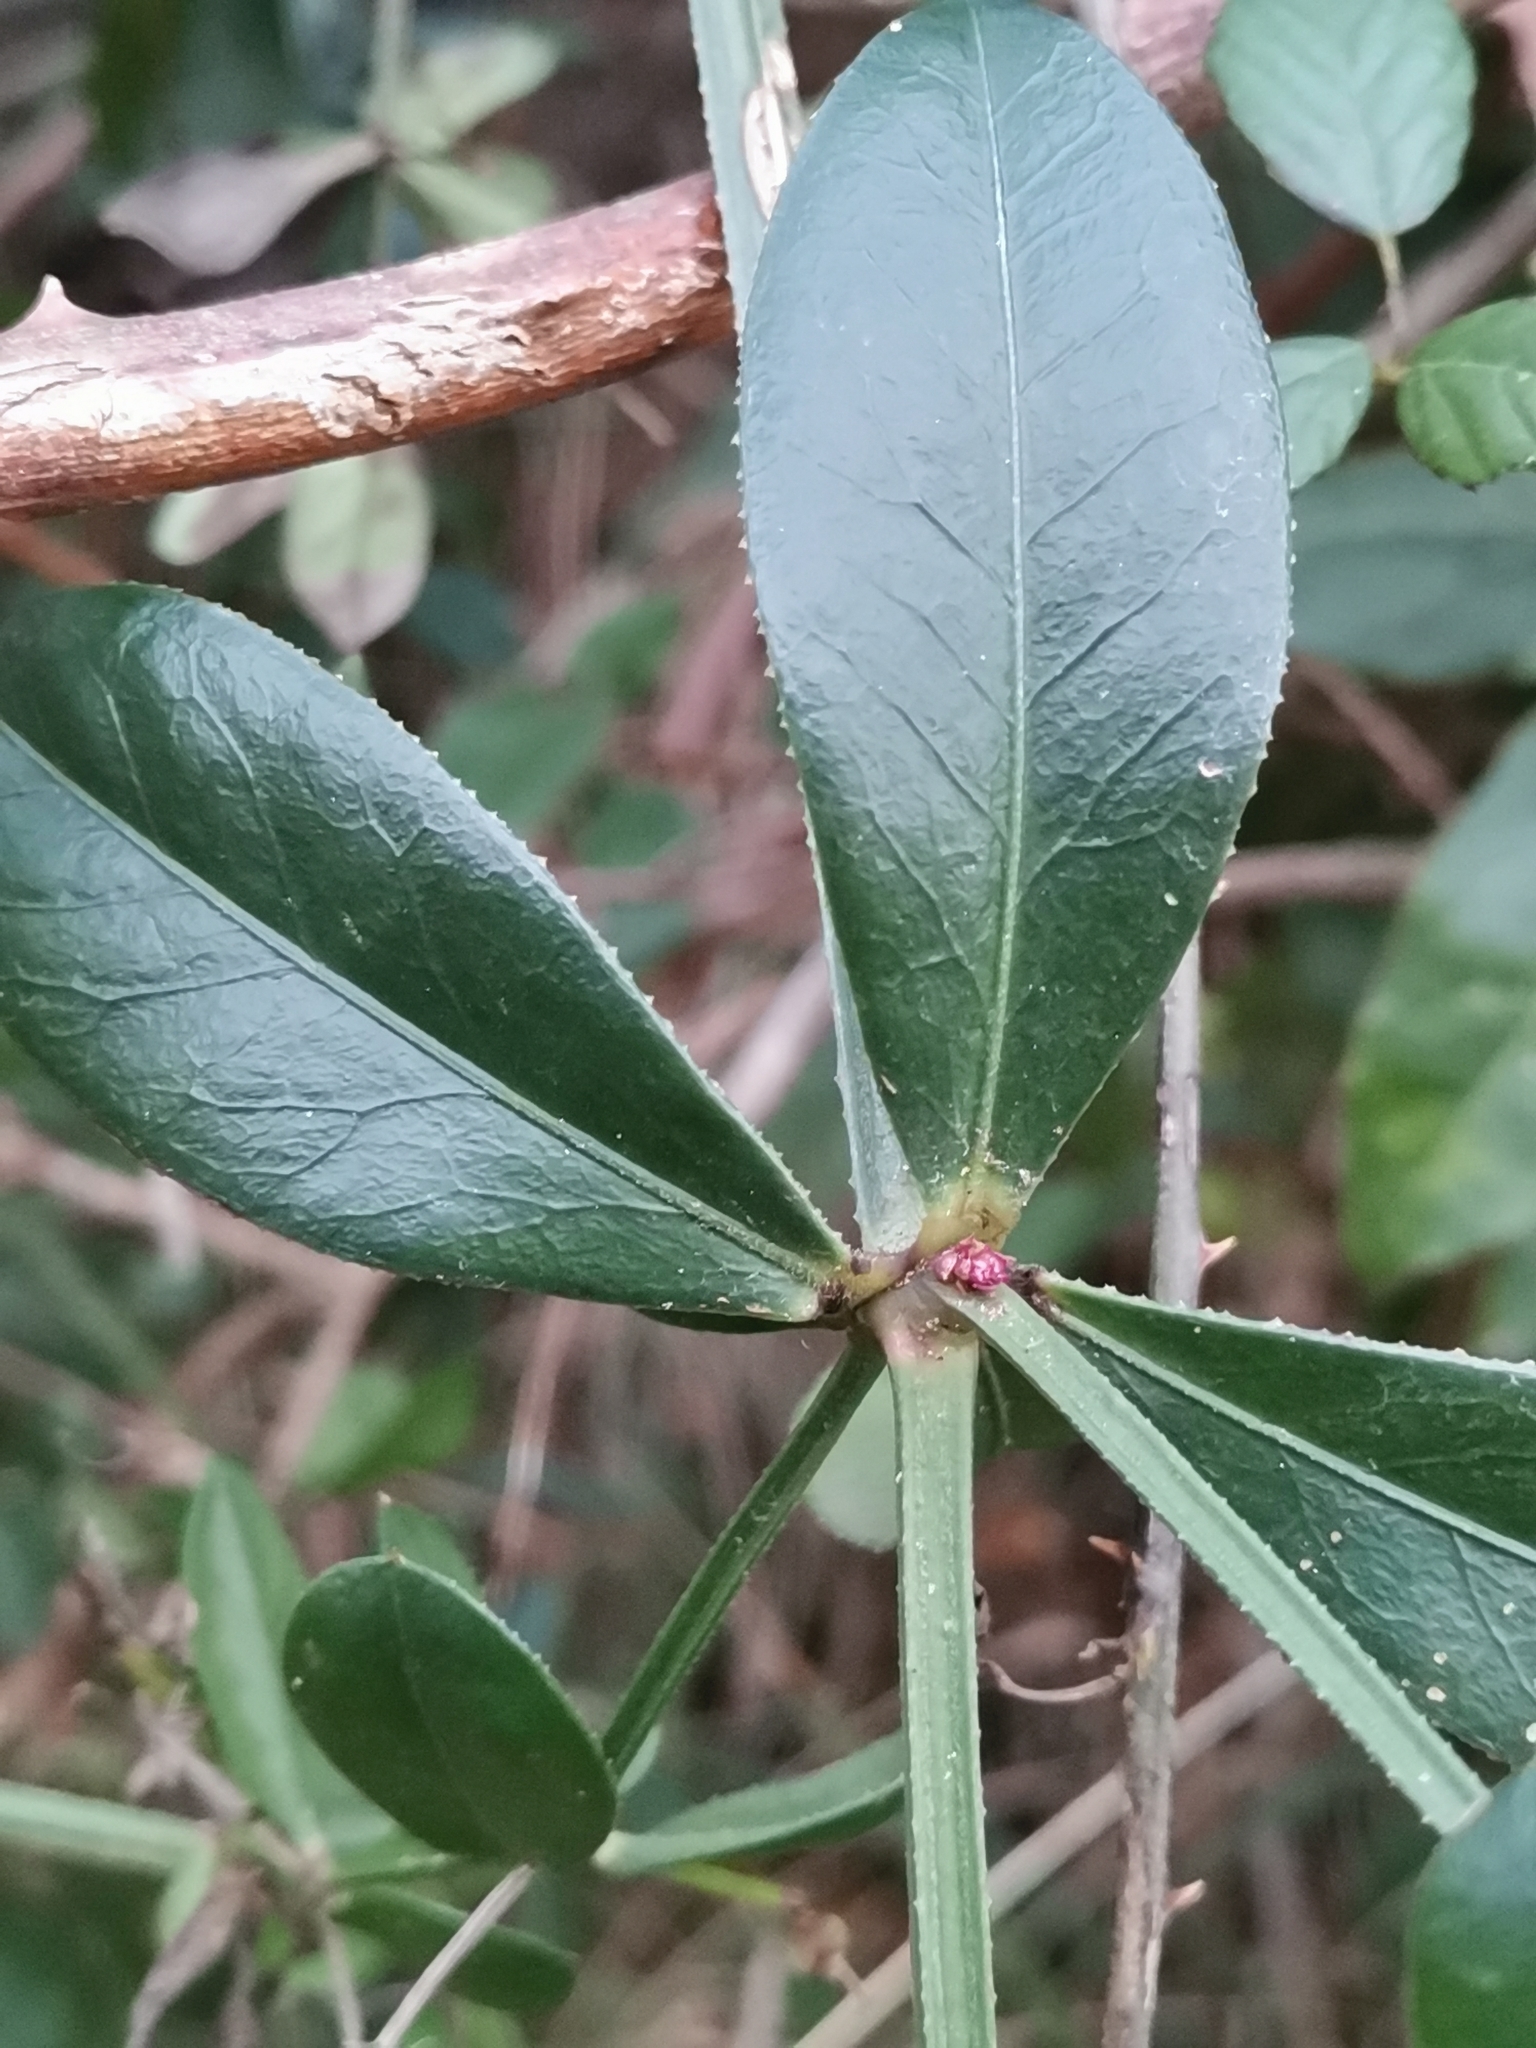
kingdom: Plantae
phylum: Tracheophyta
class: Magnoliopsida
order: Gentianales
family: Rubiaceae
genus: Rubia
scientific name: Rubia peregrina
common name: Wild madder
